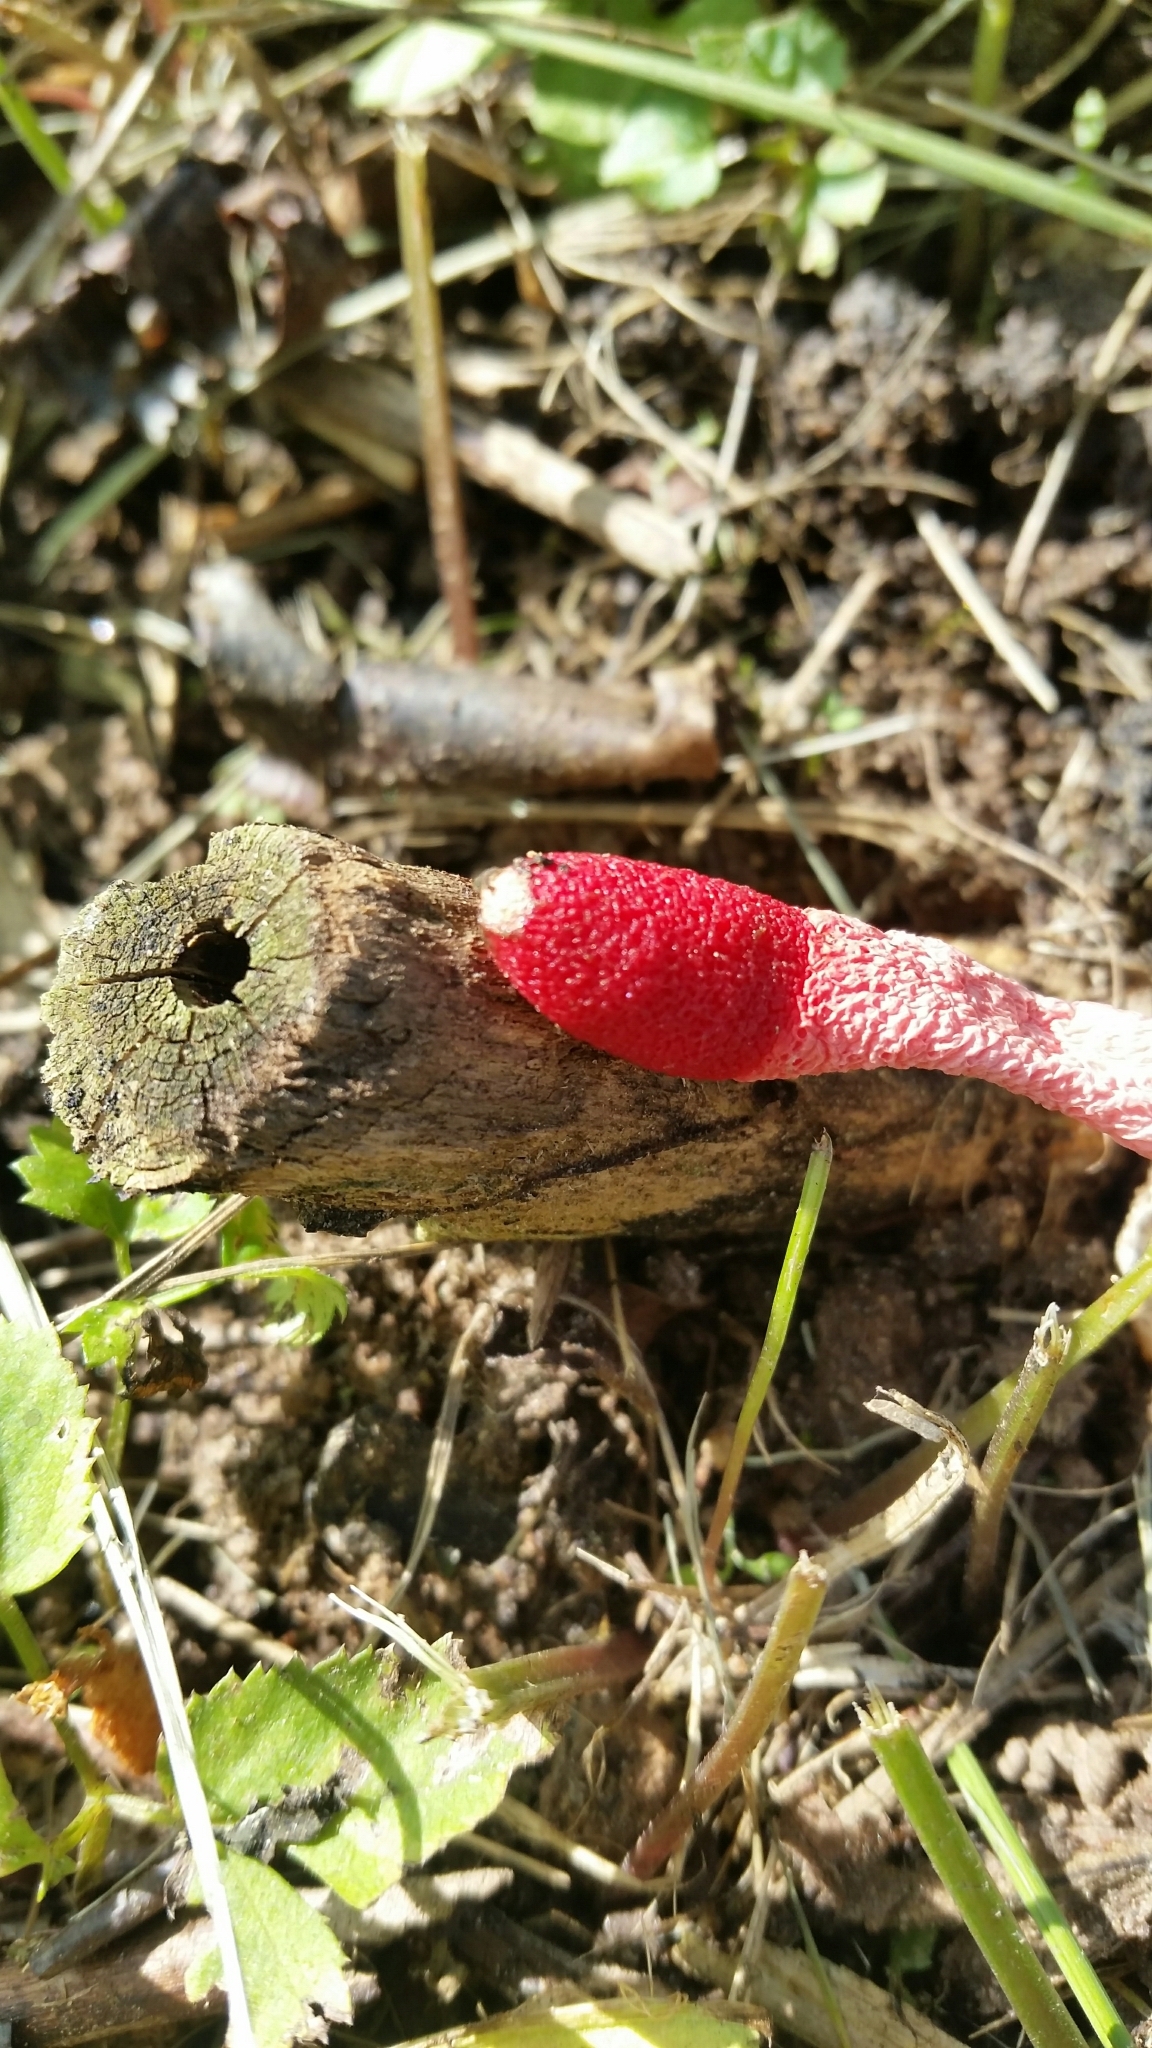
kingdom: Fungi
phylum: Basidiomycota
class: Agaricomycetes
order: Phallales
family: Phallaceae
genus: Mutinus
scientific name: Mutinus ravenelii
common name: Red stinkhorn
